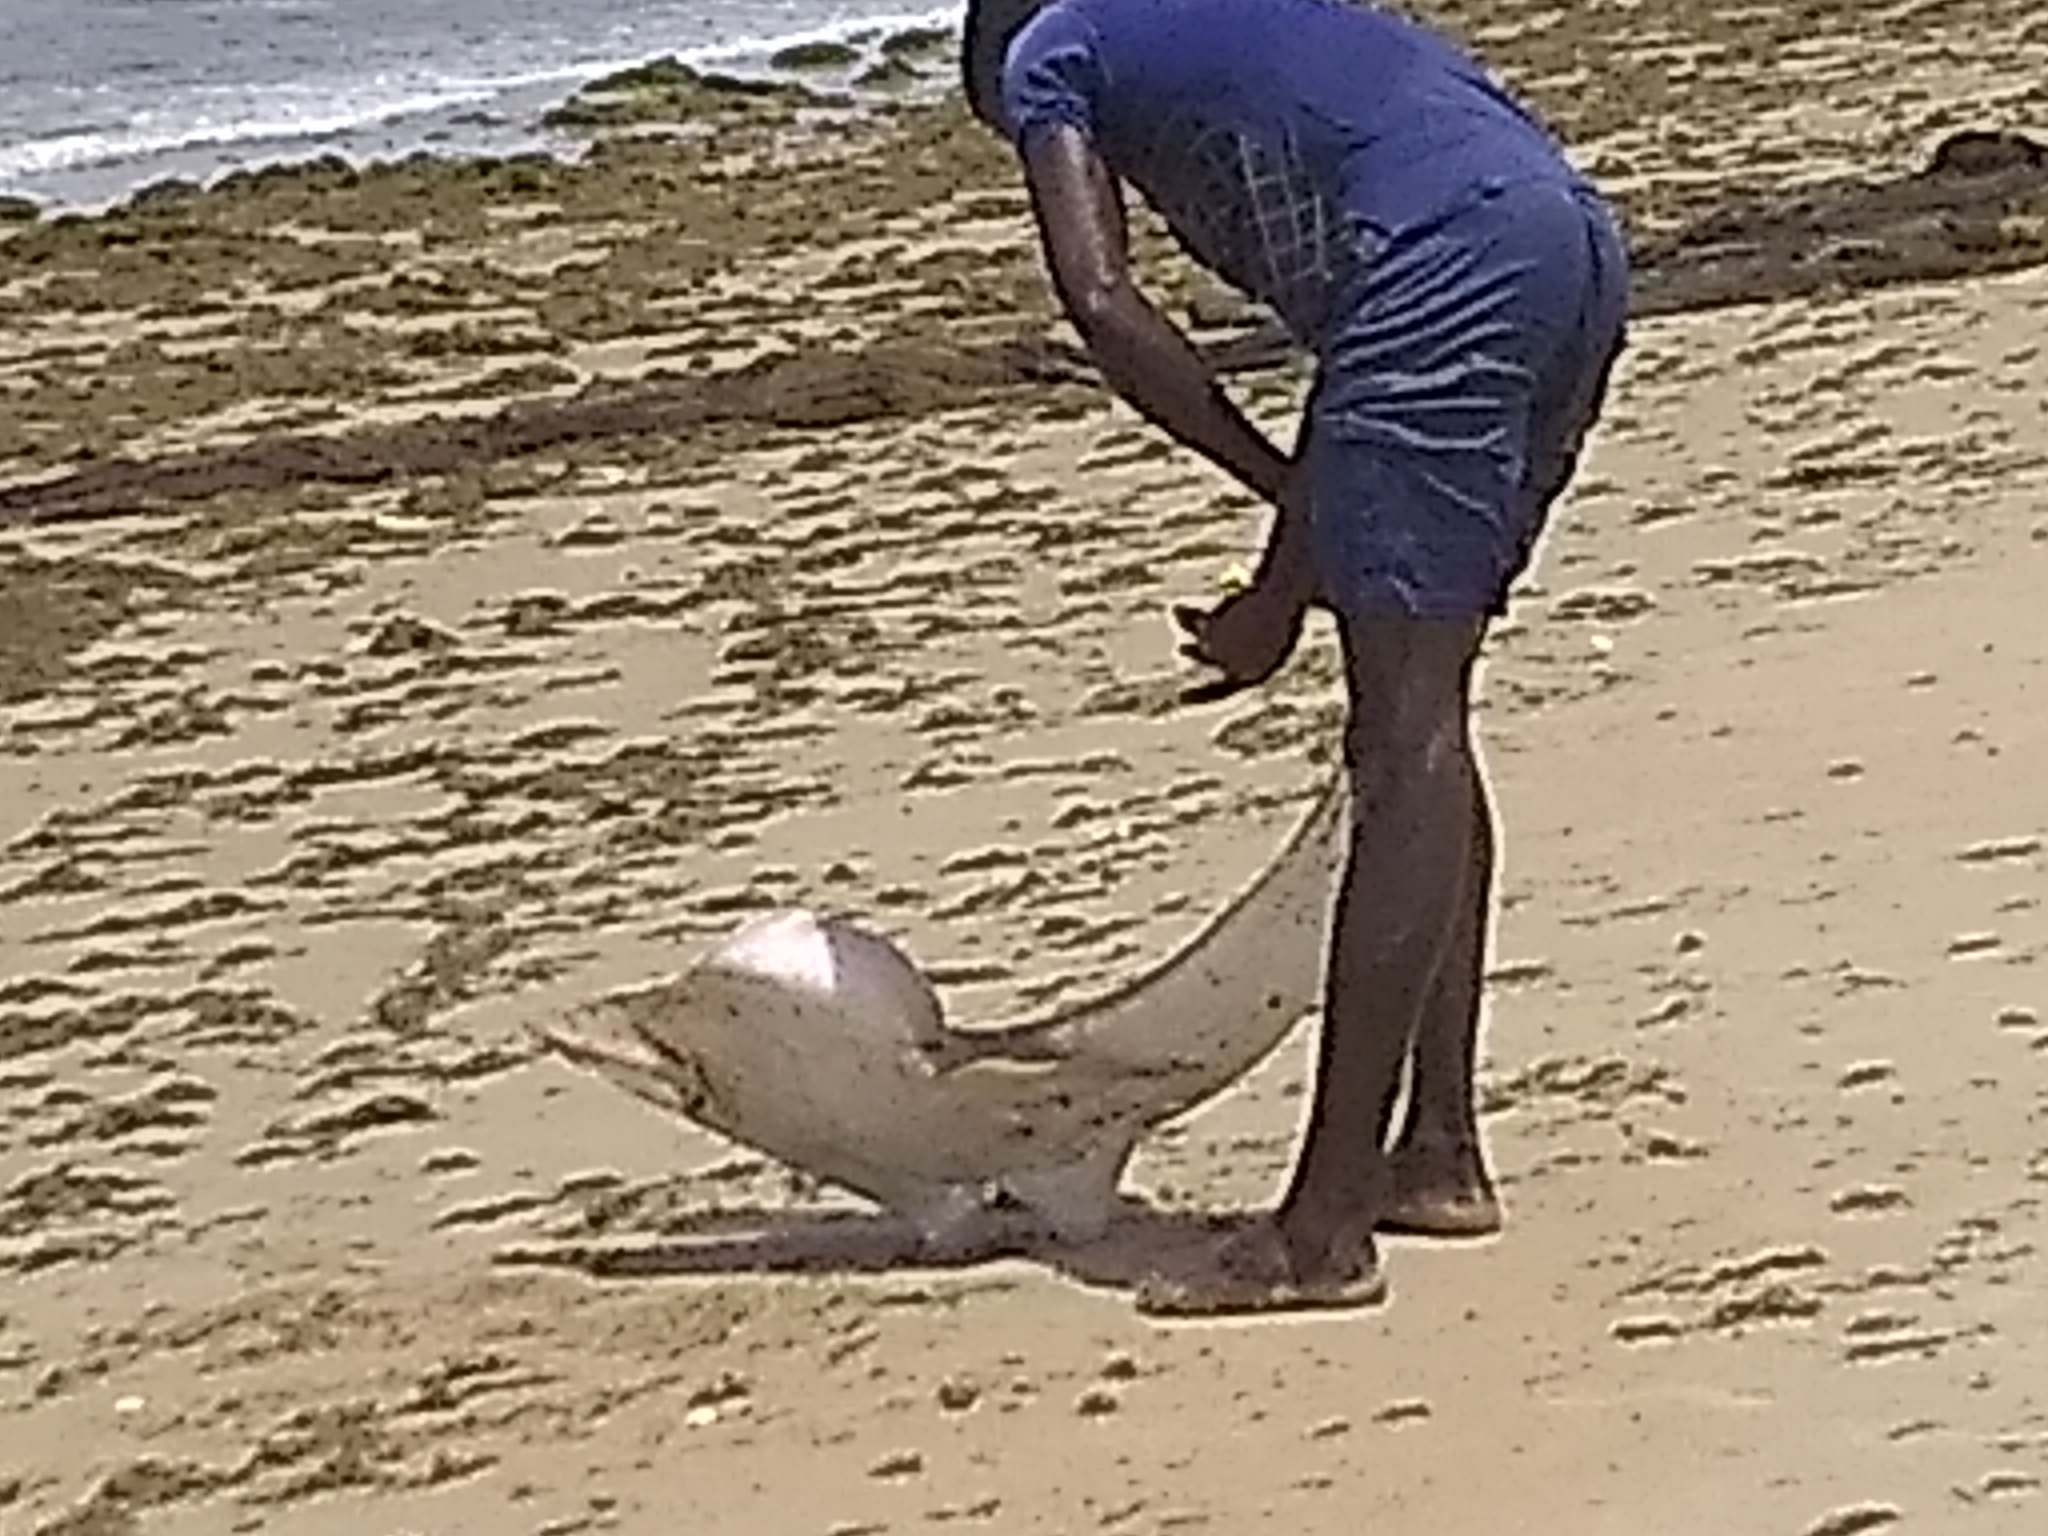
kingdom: Animalia
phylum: Chordata
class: Elasmobranchii
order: Rhinopristiformes
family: Glaucostegidae
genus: Glaucostegus
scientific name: Glaucostegus cemiculus
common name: Blackchin guitarfish
